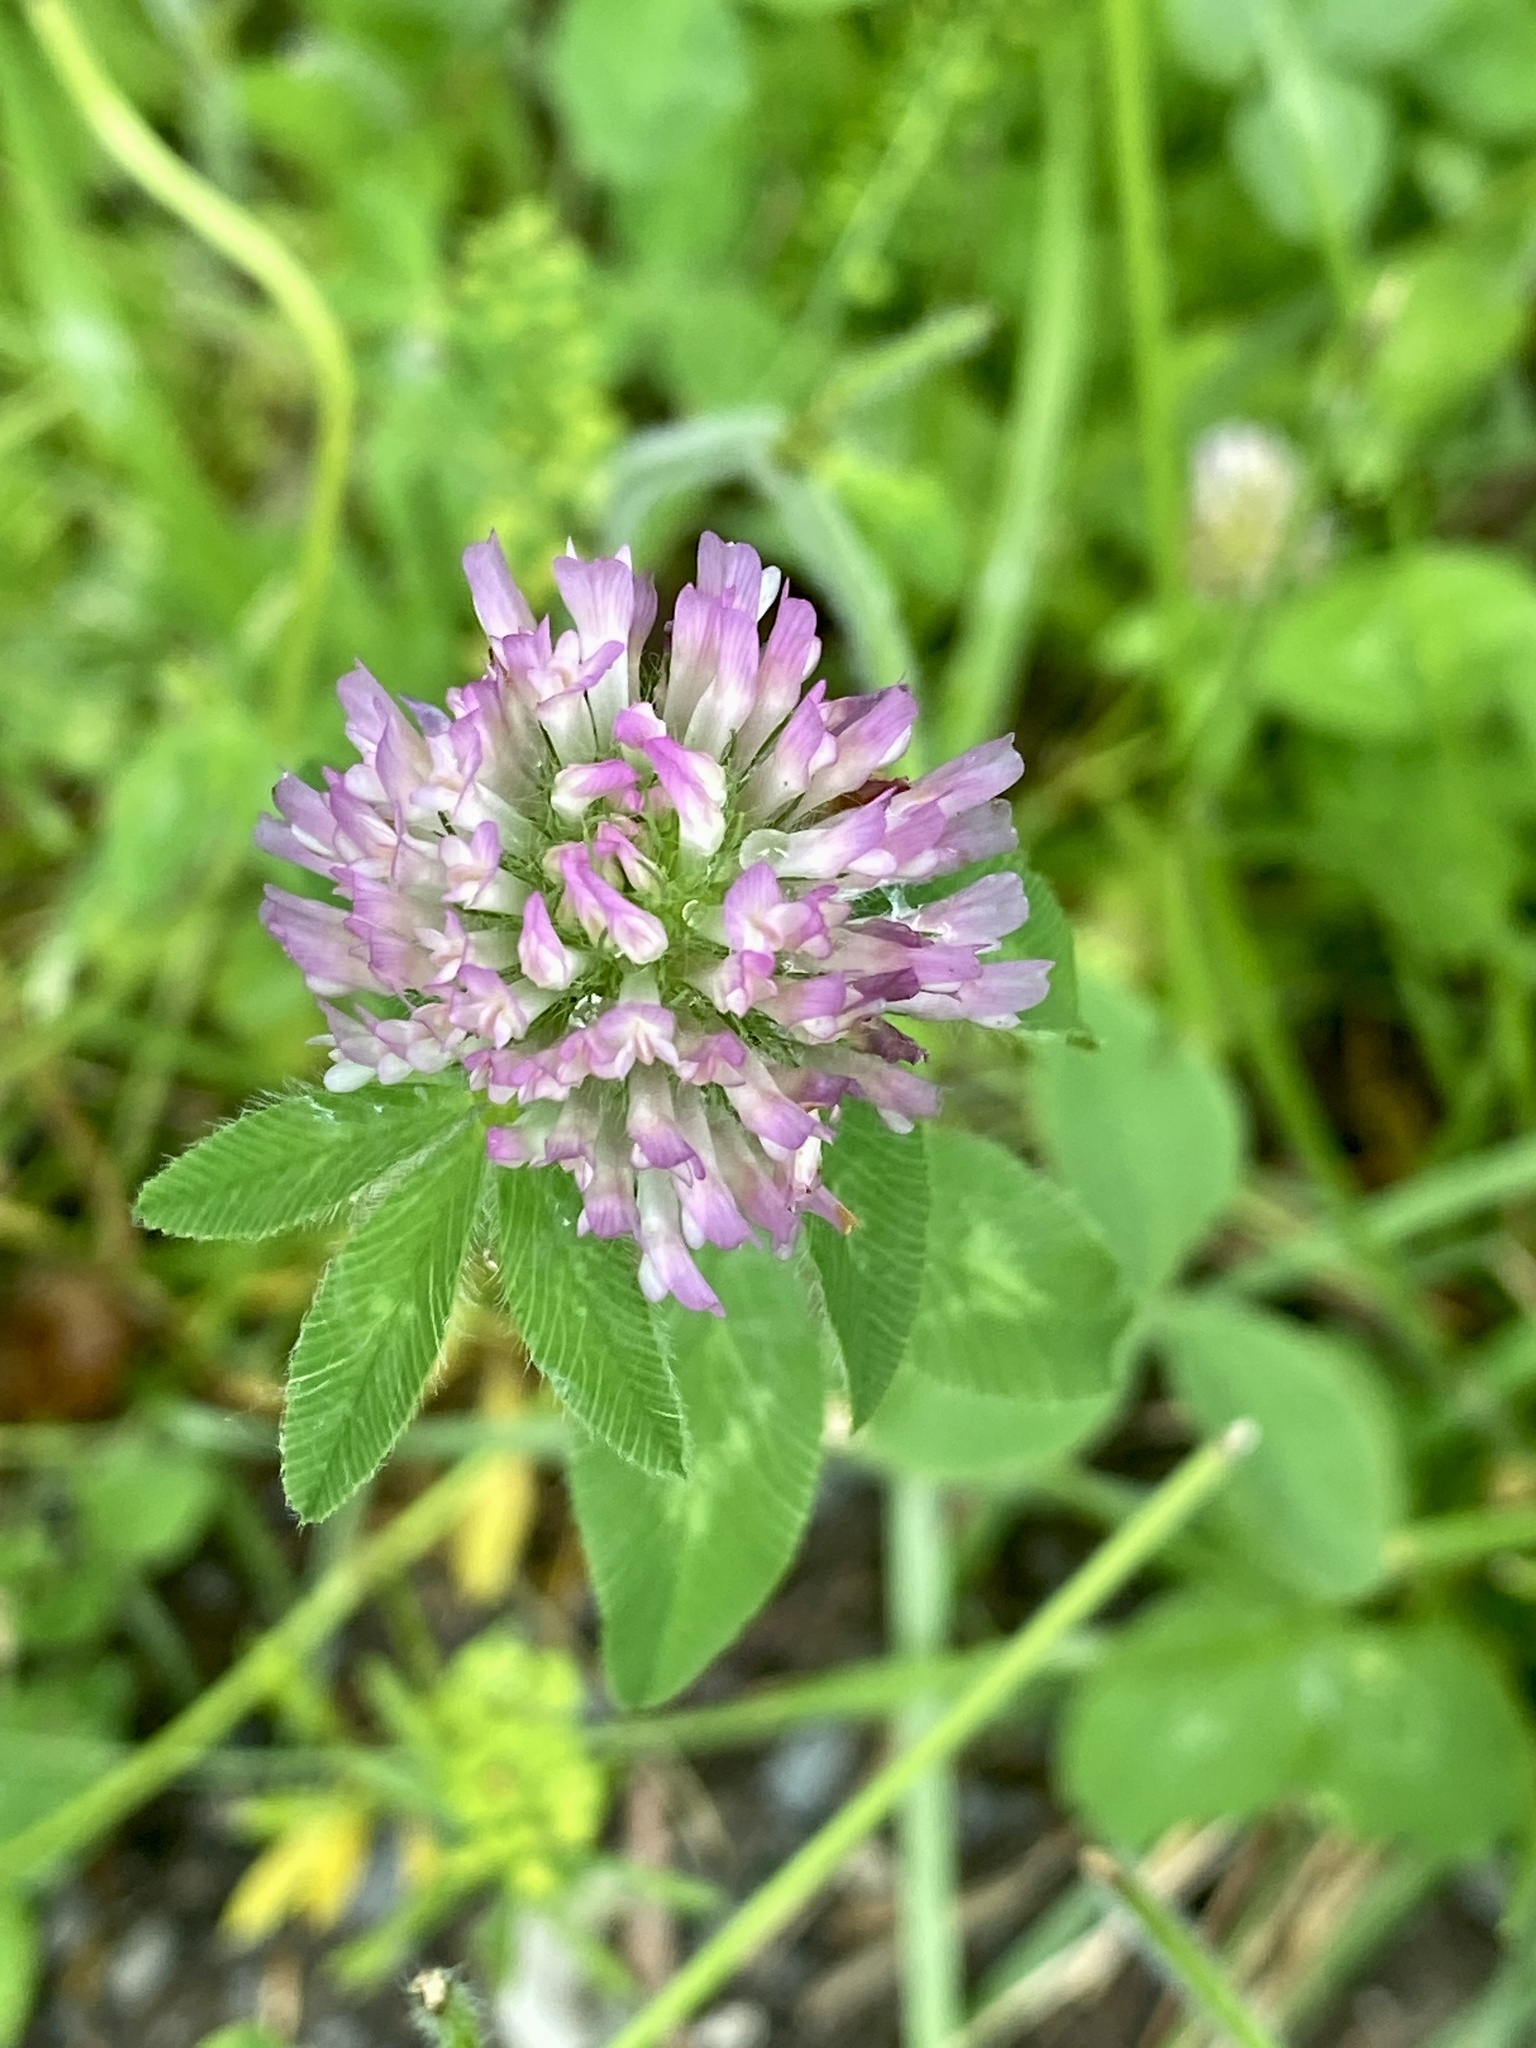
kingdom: Plantae
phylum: Tracheophyta
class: Magnoliopsida
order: Fabales
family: Fabaceae
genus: Trifolium
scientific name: Trifolium pratense
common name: Red clover
